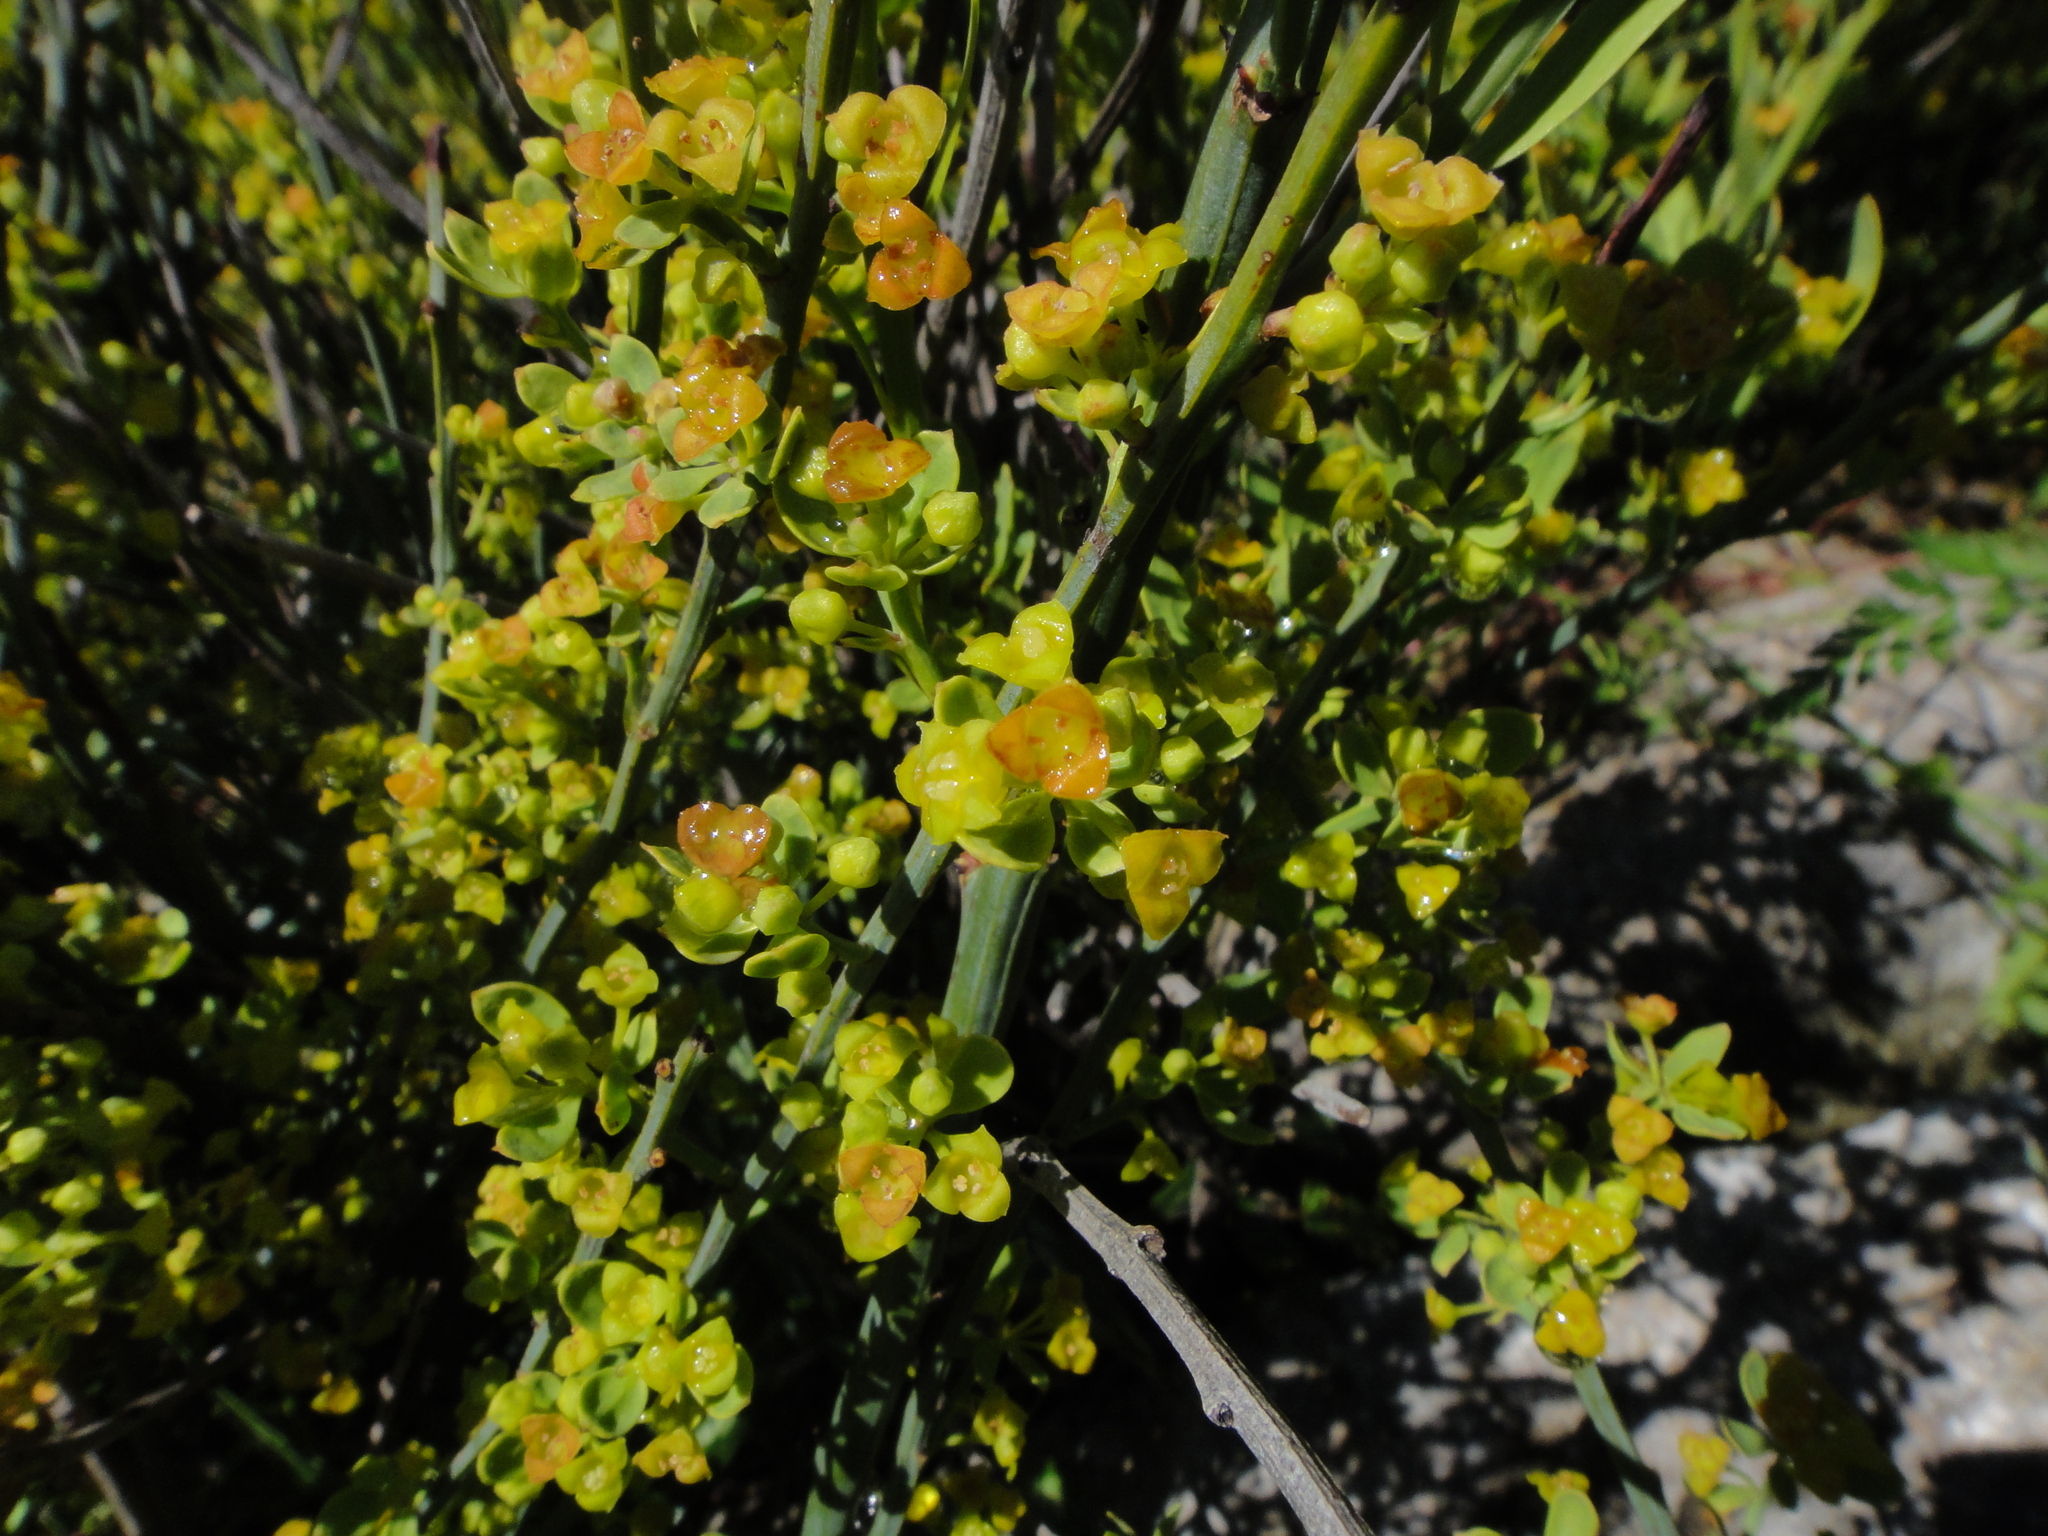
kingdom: Plantae
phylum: Tracheophyta
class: Magnoliopsida
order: Santalales
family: Santalaceae
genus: Osyris
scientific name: Osyris alba
